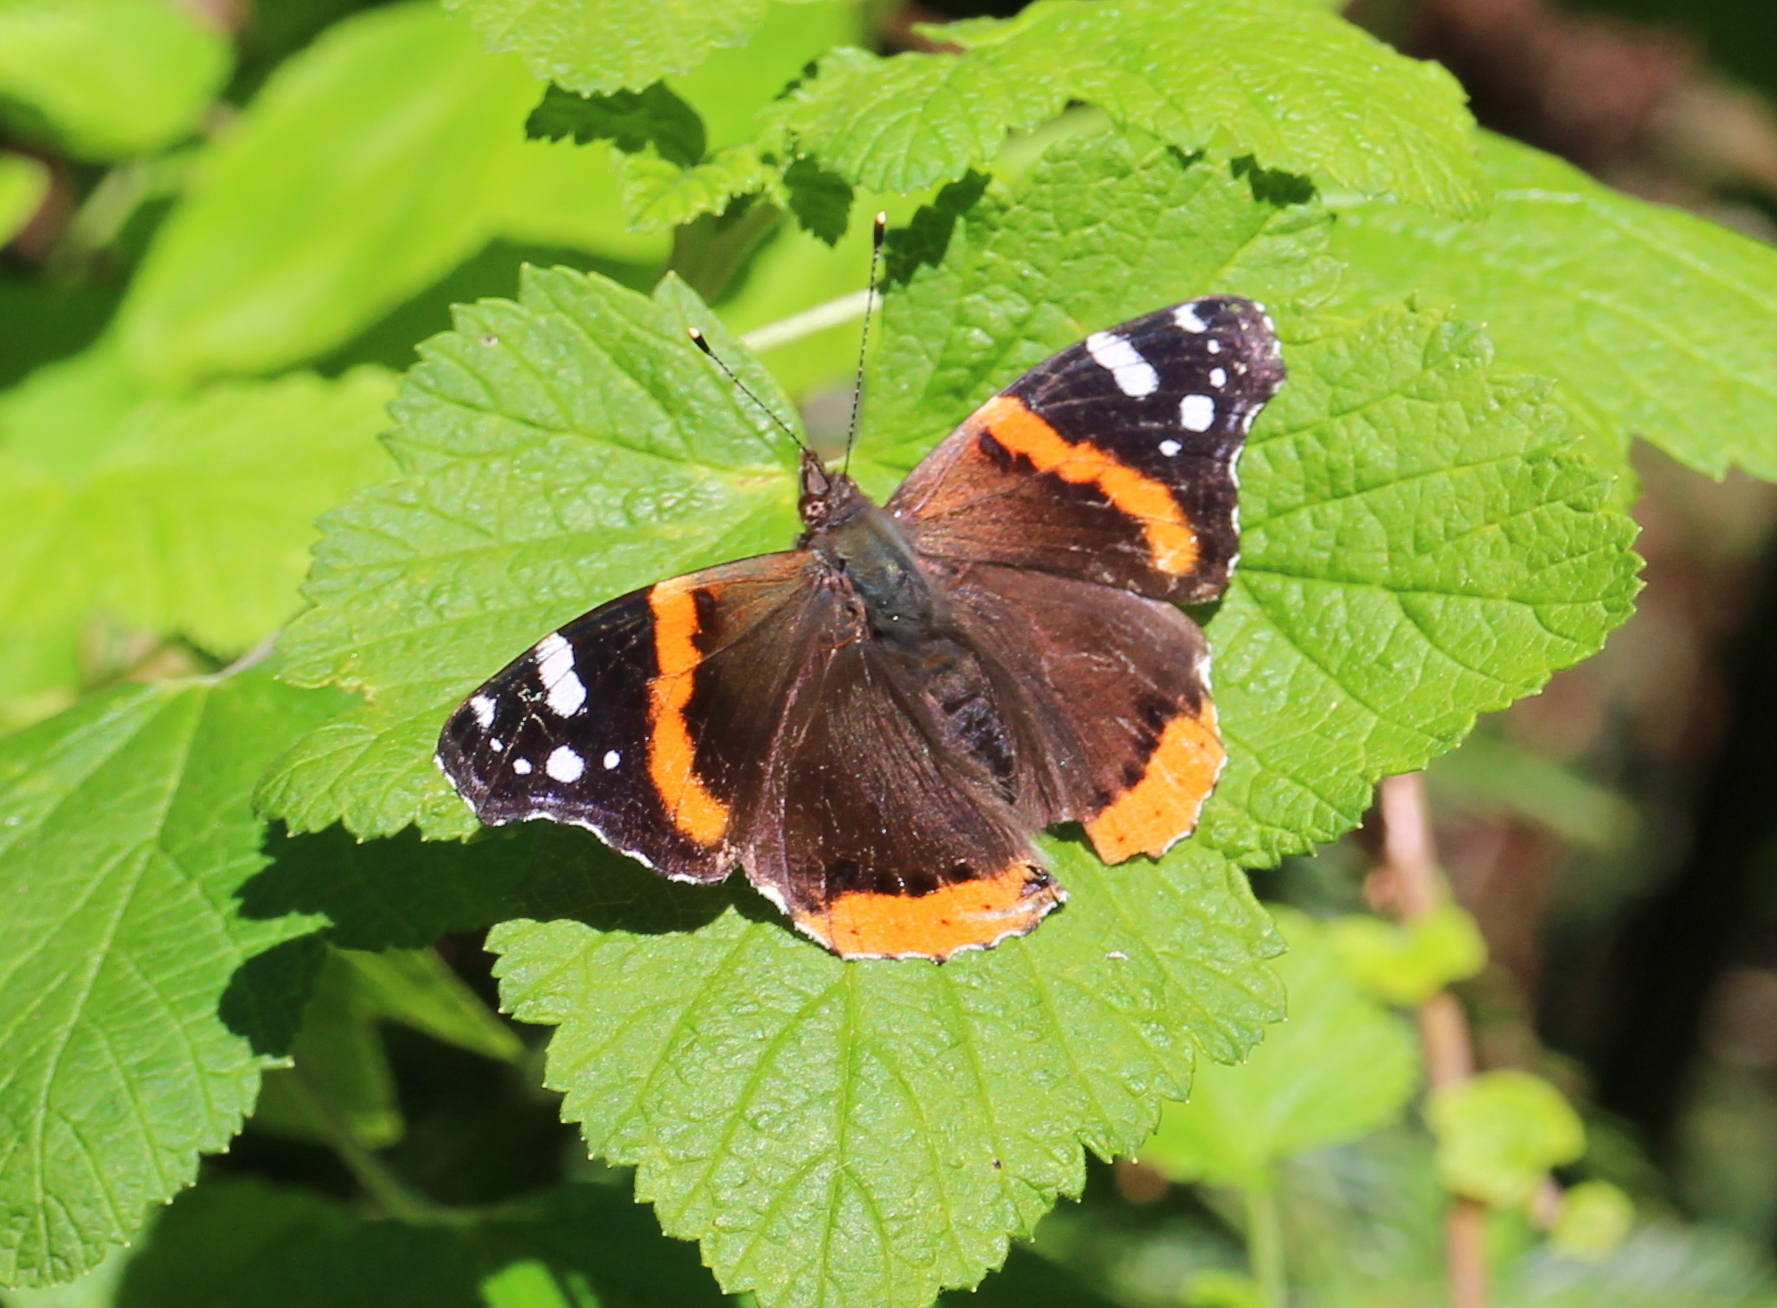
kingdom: Animalia
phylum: Arthropoda
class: Insecta
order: Lepidoptera
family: Nymphalidae
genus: Vanessa
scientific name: Vanessa atalanta
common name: Red admiral
